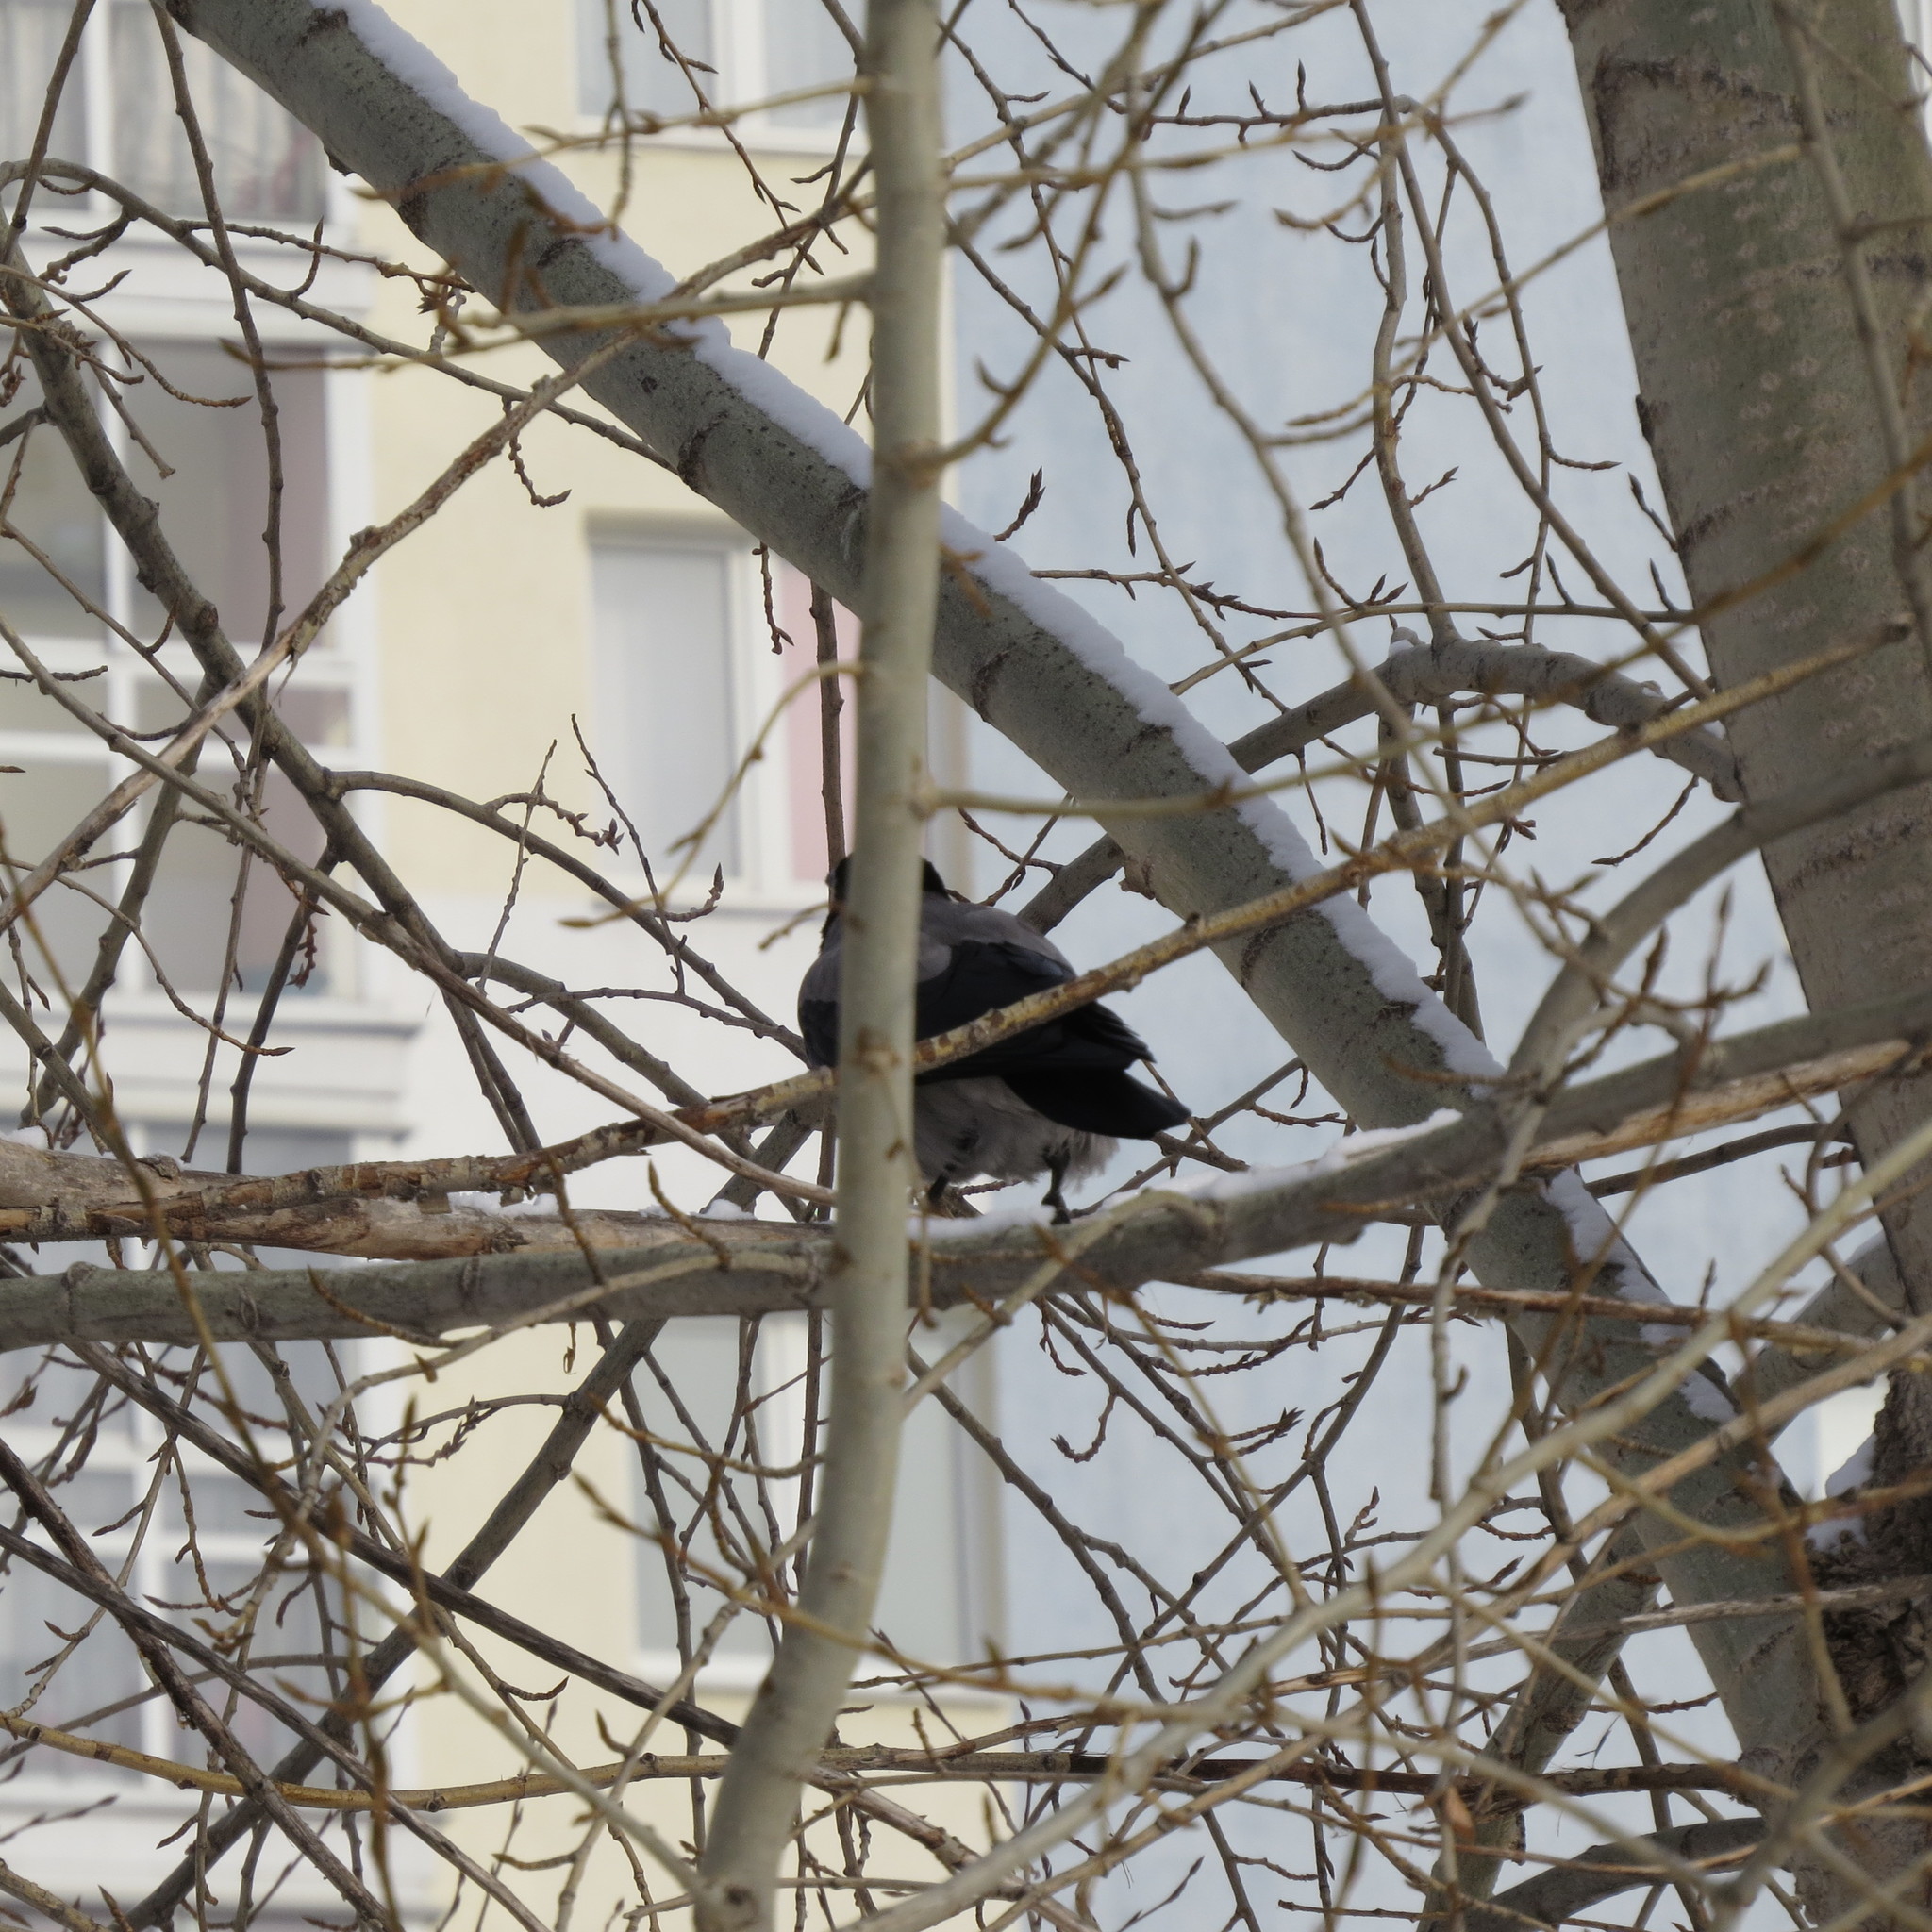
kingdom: Animalia
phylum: Chordata
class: Aves
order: Passeriformes
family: Corvidae
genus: Corvus
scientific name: Corvus cornix
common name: Hooded crow
